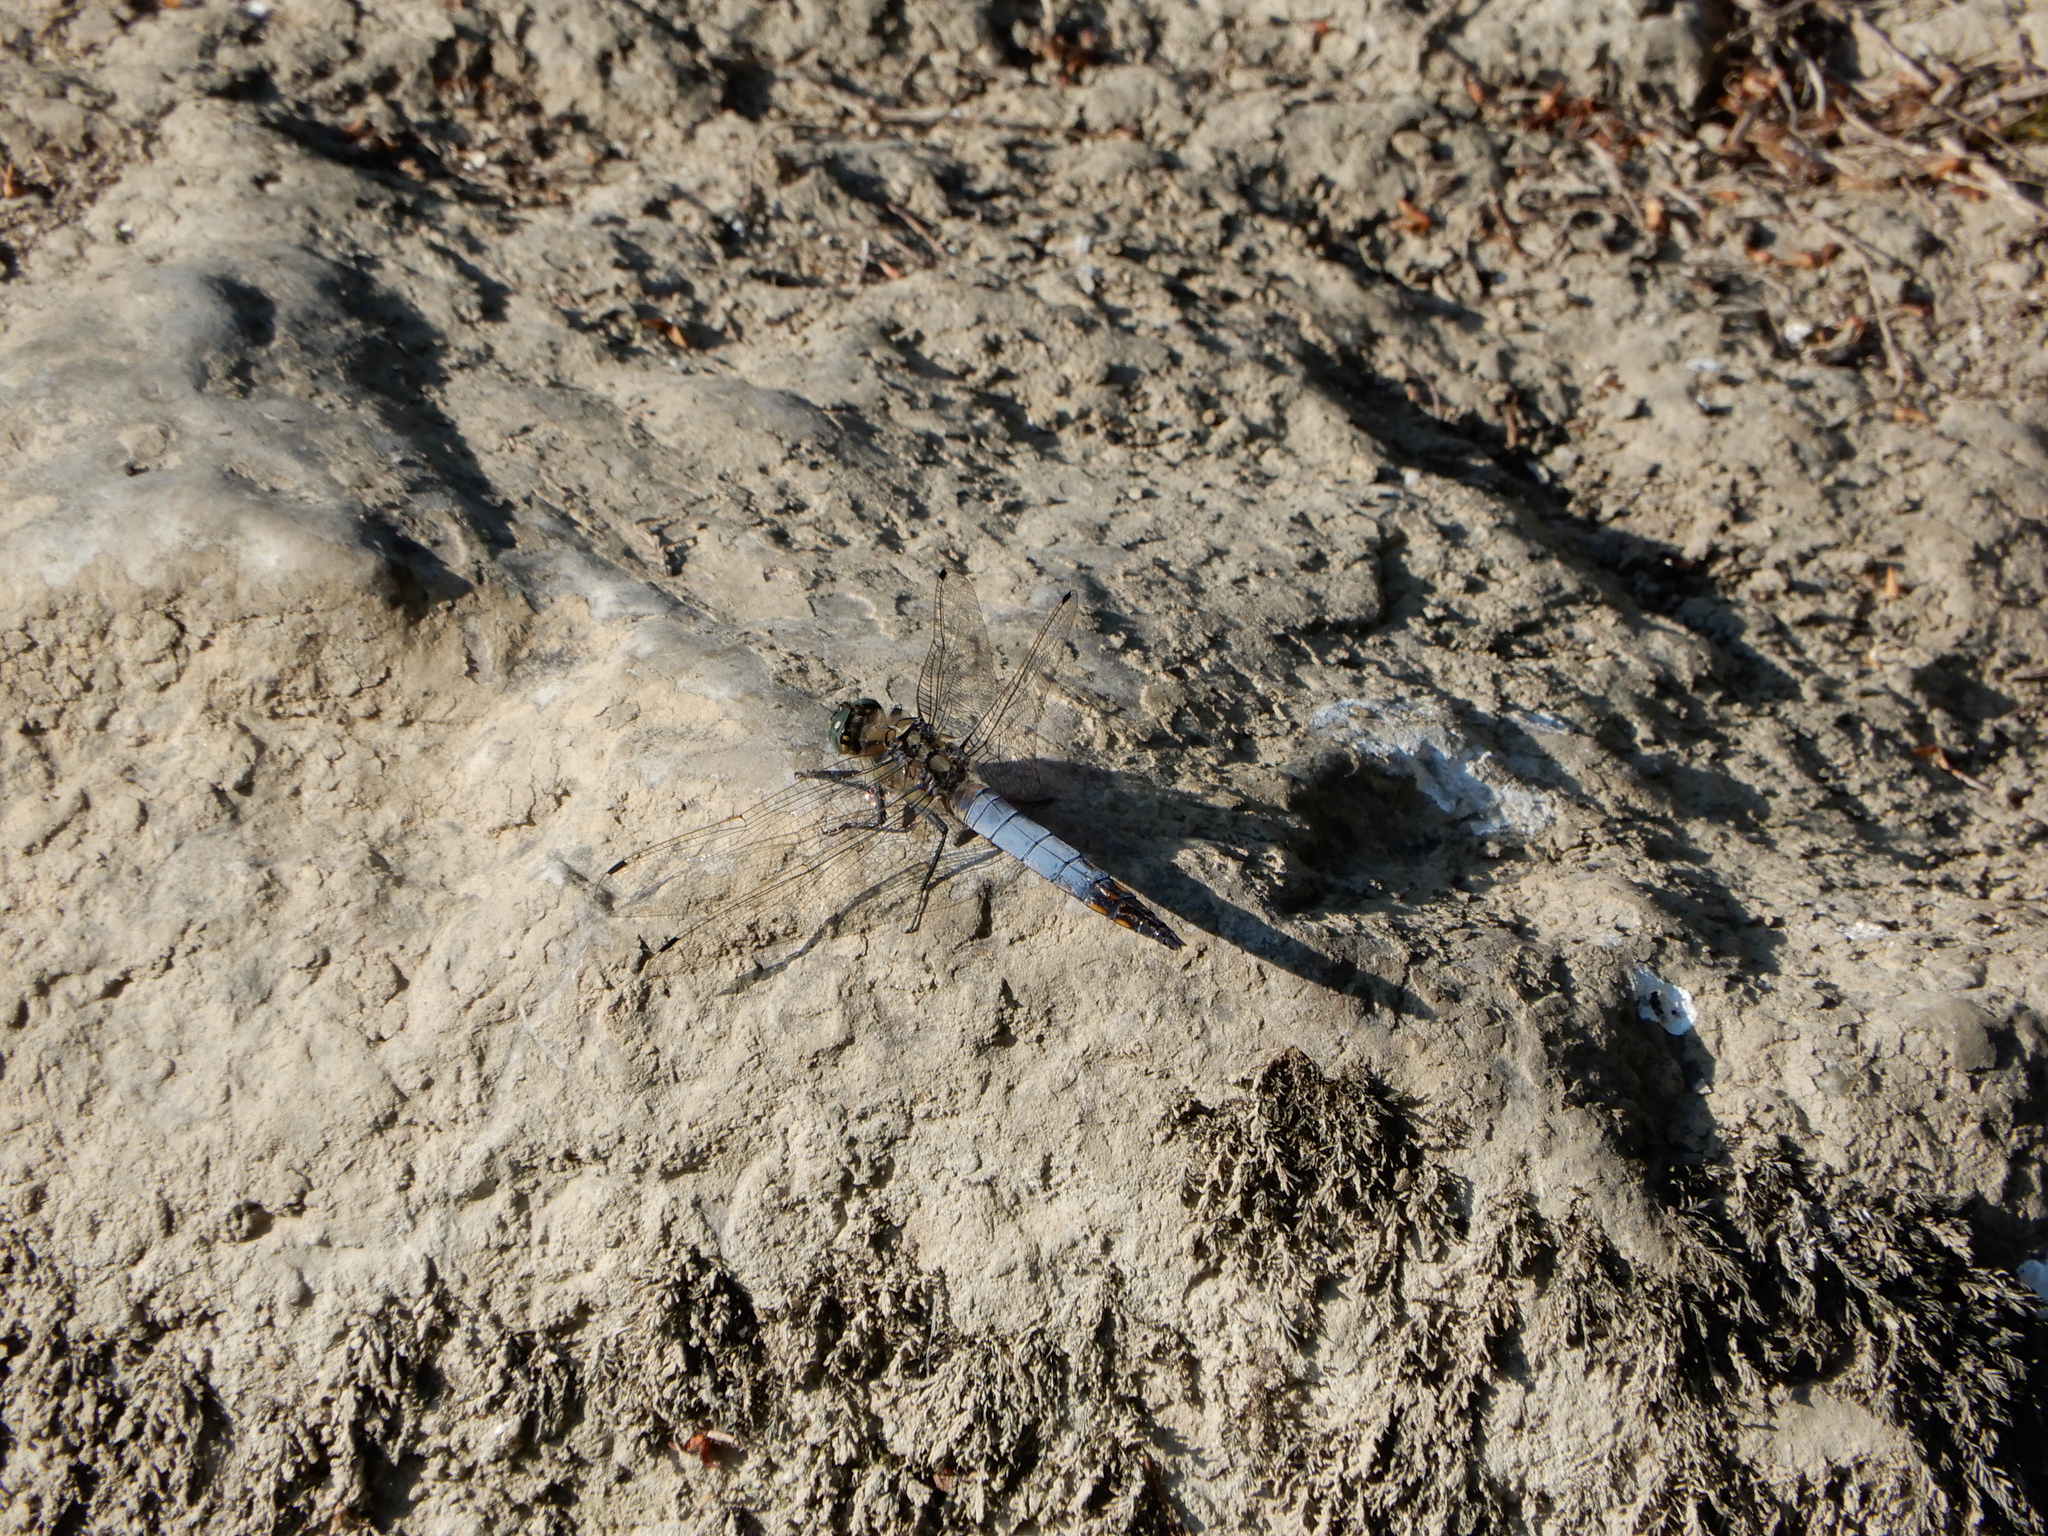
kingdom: Animalia
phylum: Arthropoda
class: Insecta
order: Odonata
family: Libellulidae
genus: Orthetrum
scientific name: Orthetrum cancellatum
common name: Black-tailed skimmer
